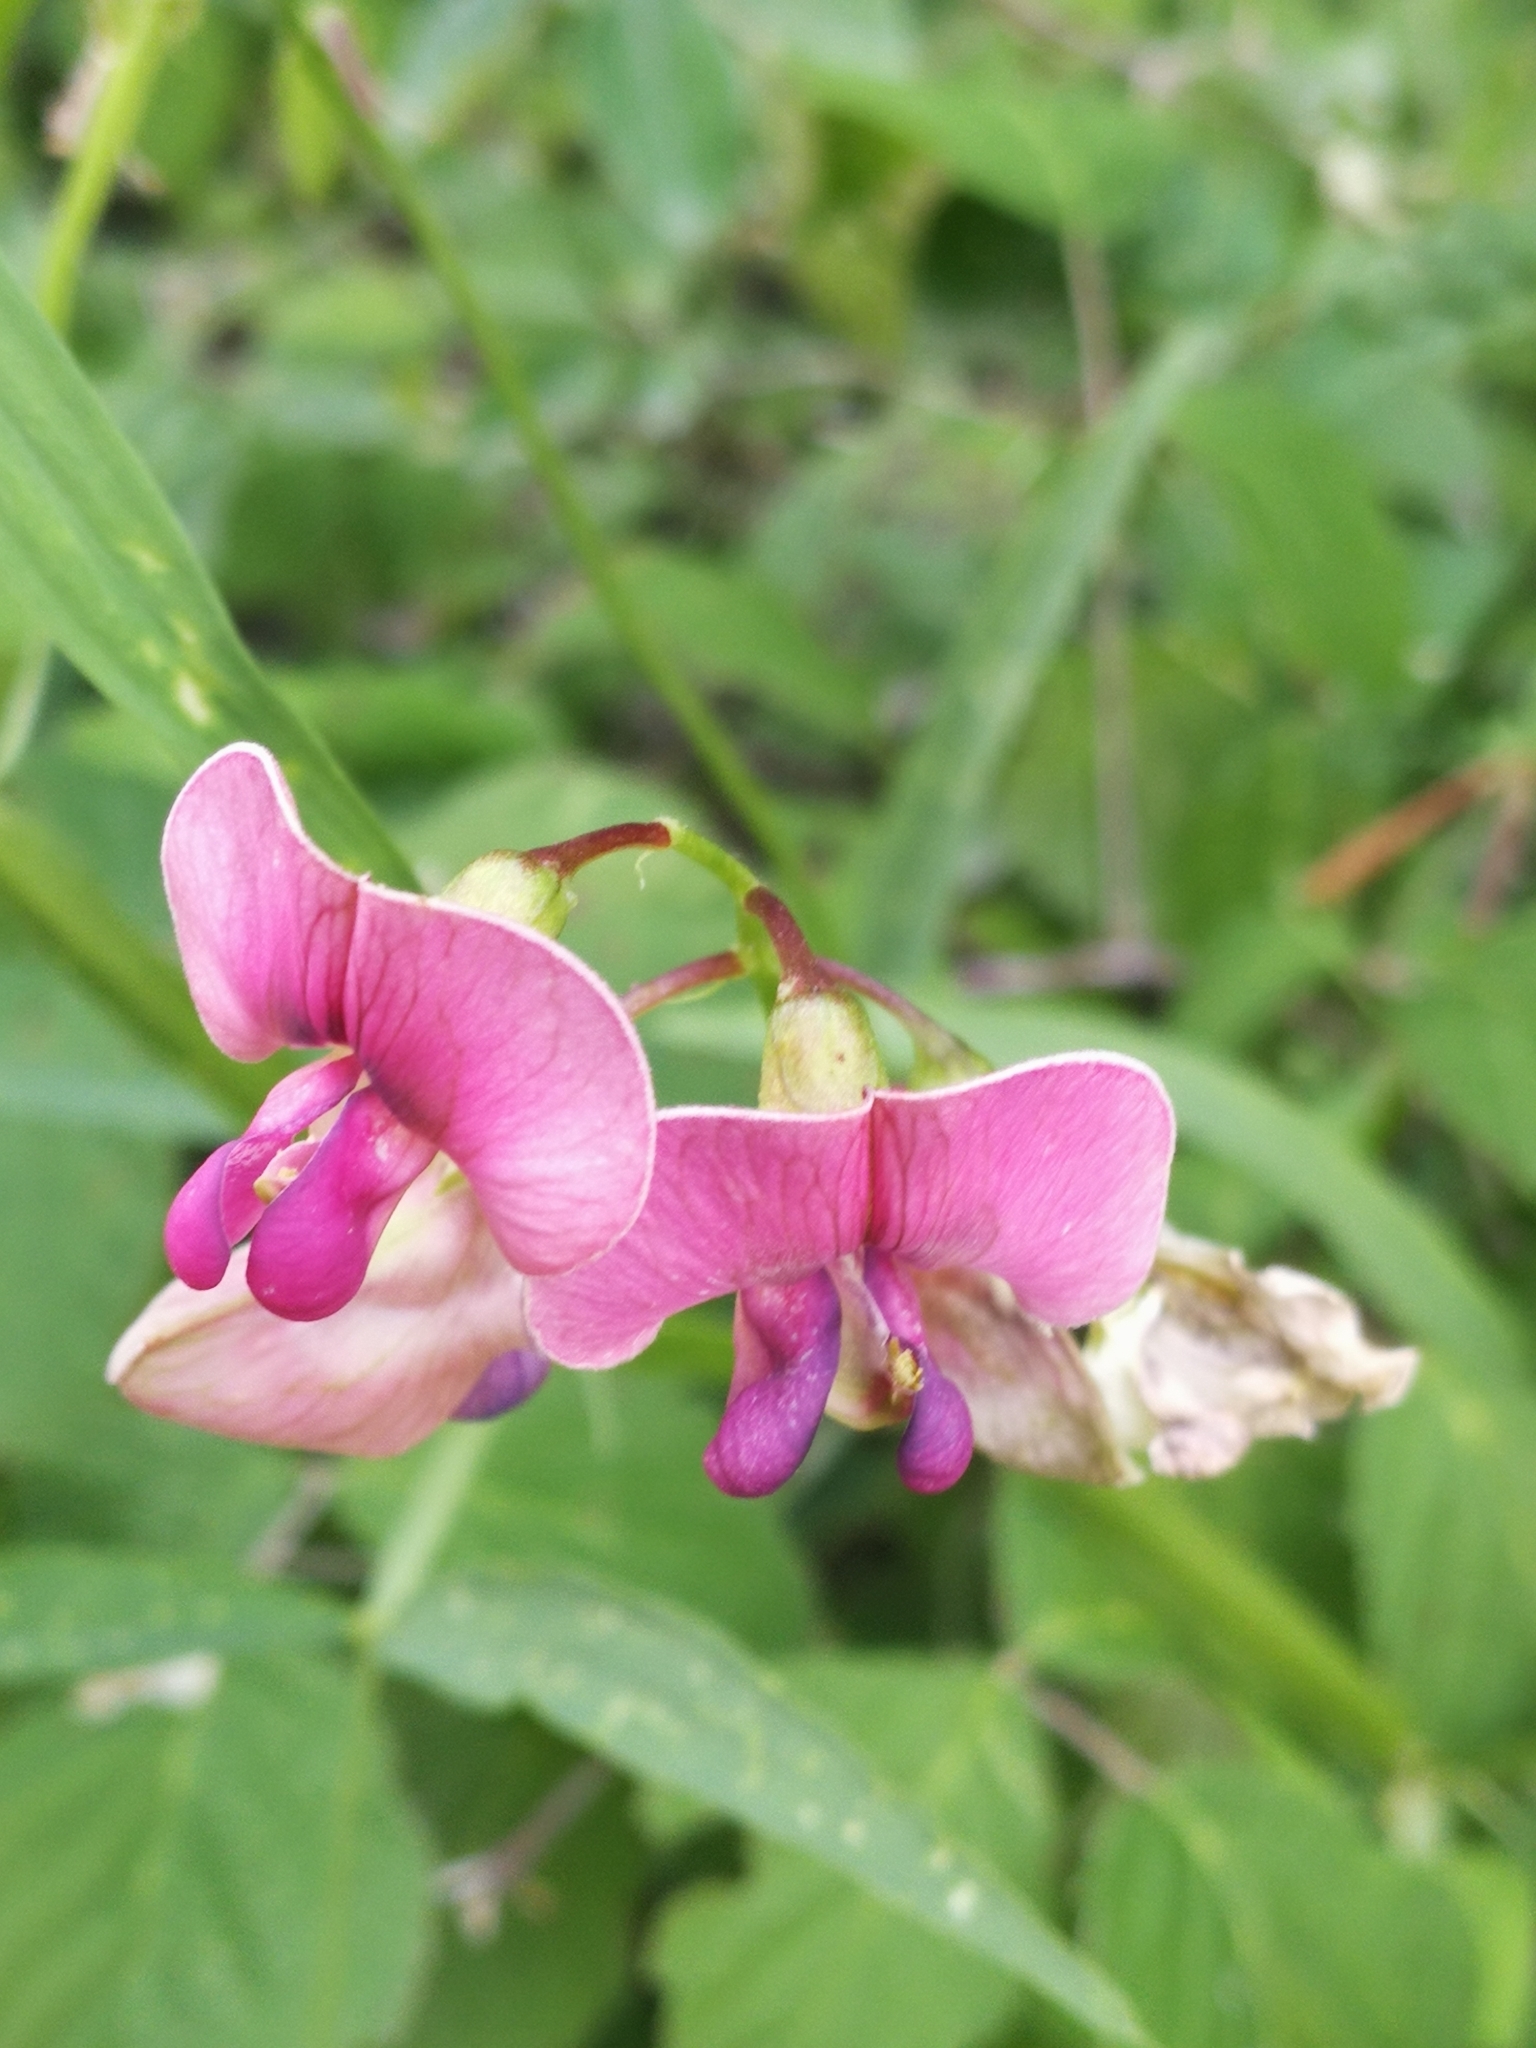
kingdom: Plantae
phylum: Tracheophyta
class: Magnoliopsida
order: Fabales
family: Fabaceae
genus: Lathyrus
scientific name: Lathyrus sylvestris
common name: Flat pea
